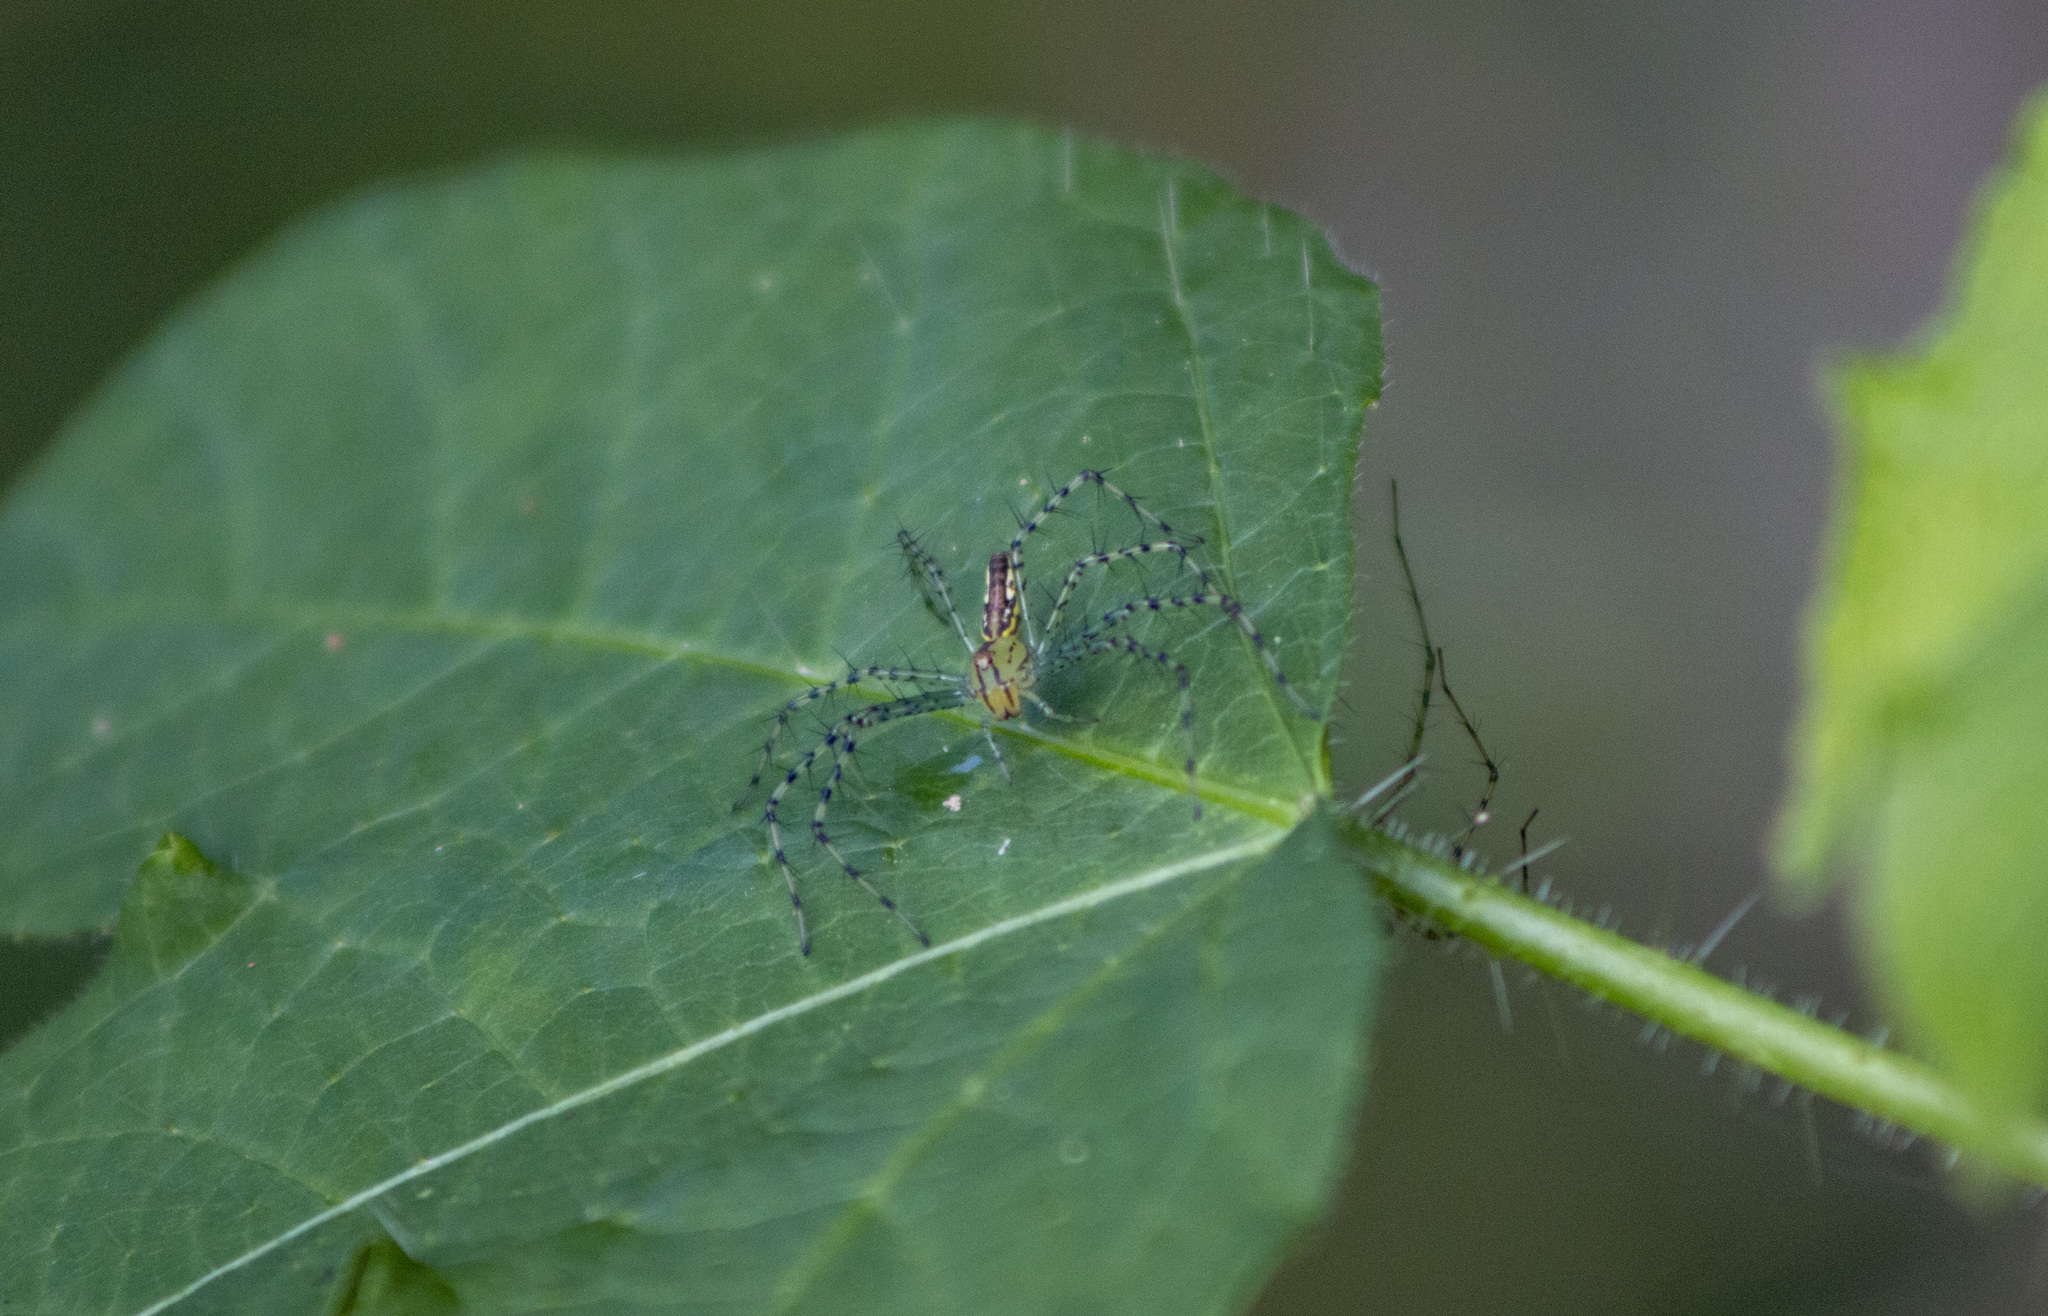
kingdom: Animalia
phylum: Arthropoda
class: Arachnida
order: Araneae
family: Oxyopidae
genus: Peucetia
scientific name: Peucetia rubrolineata
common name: Lynx spiders
